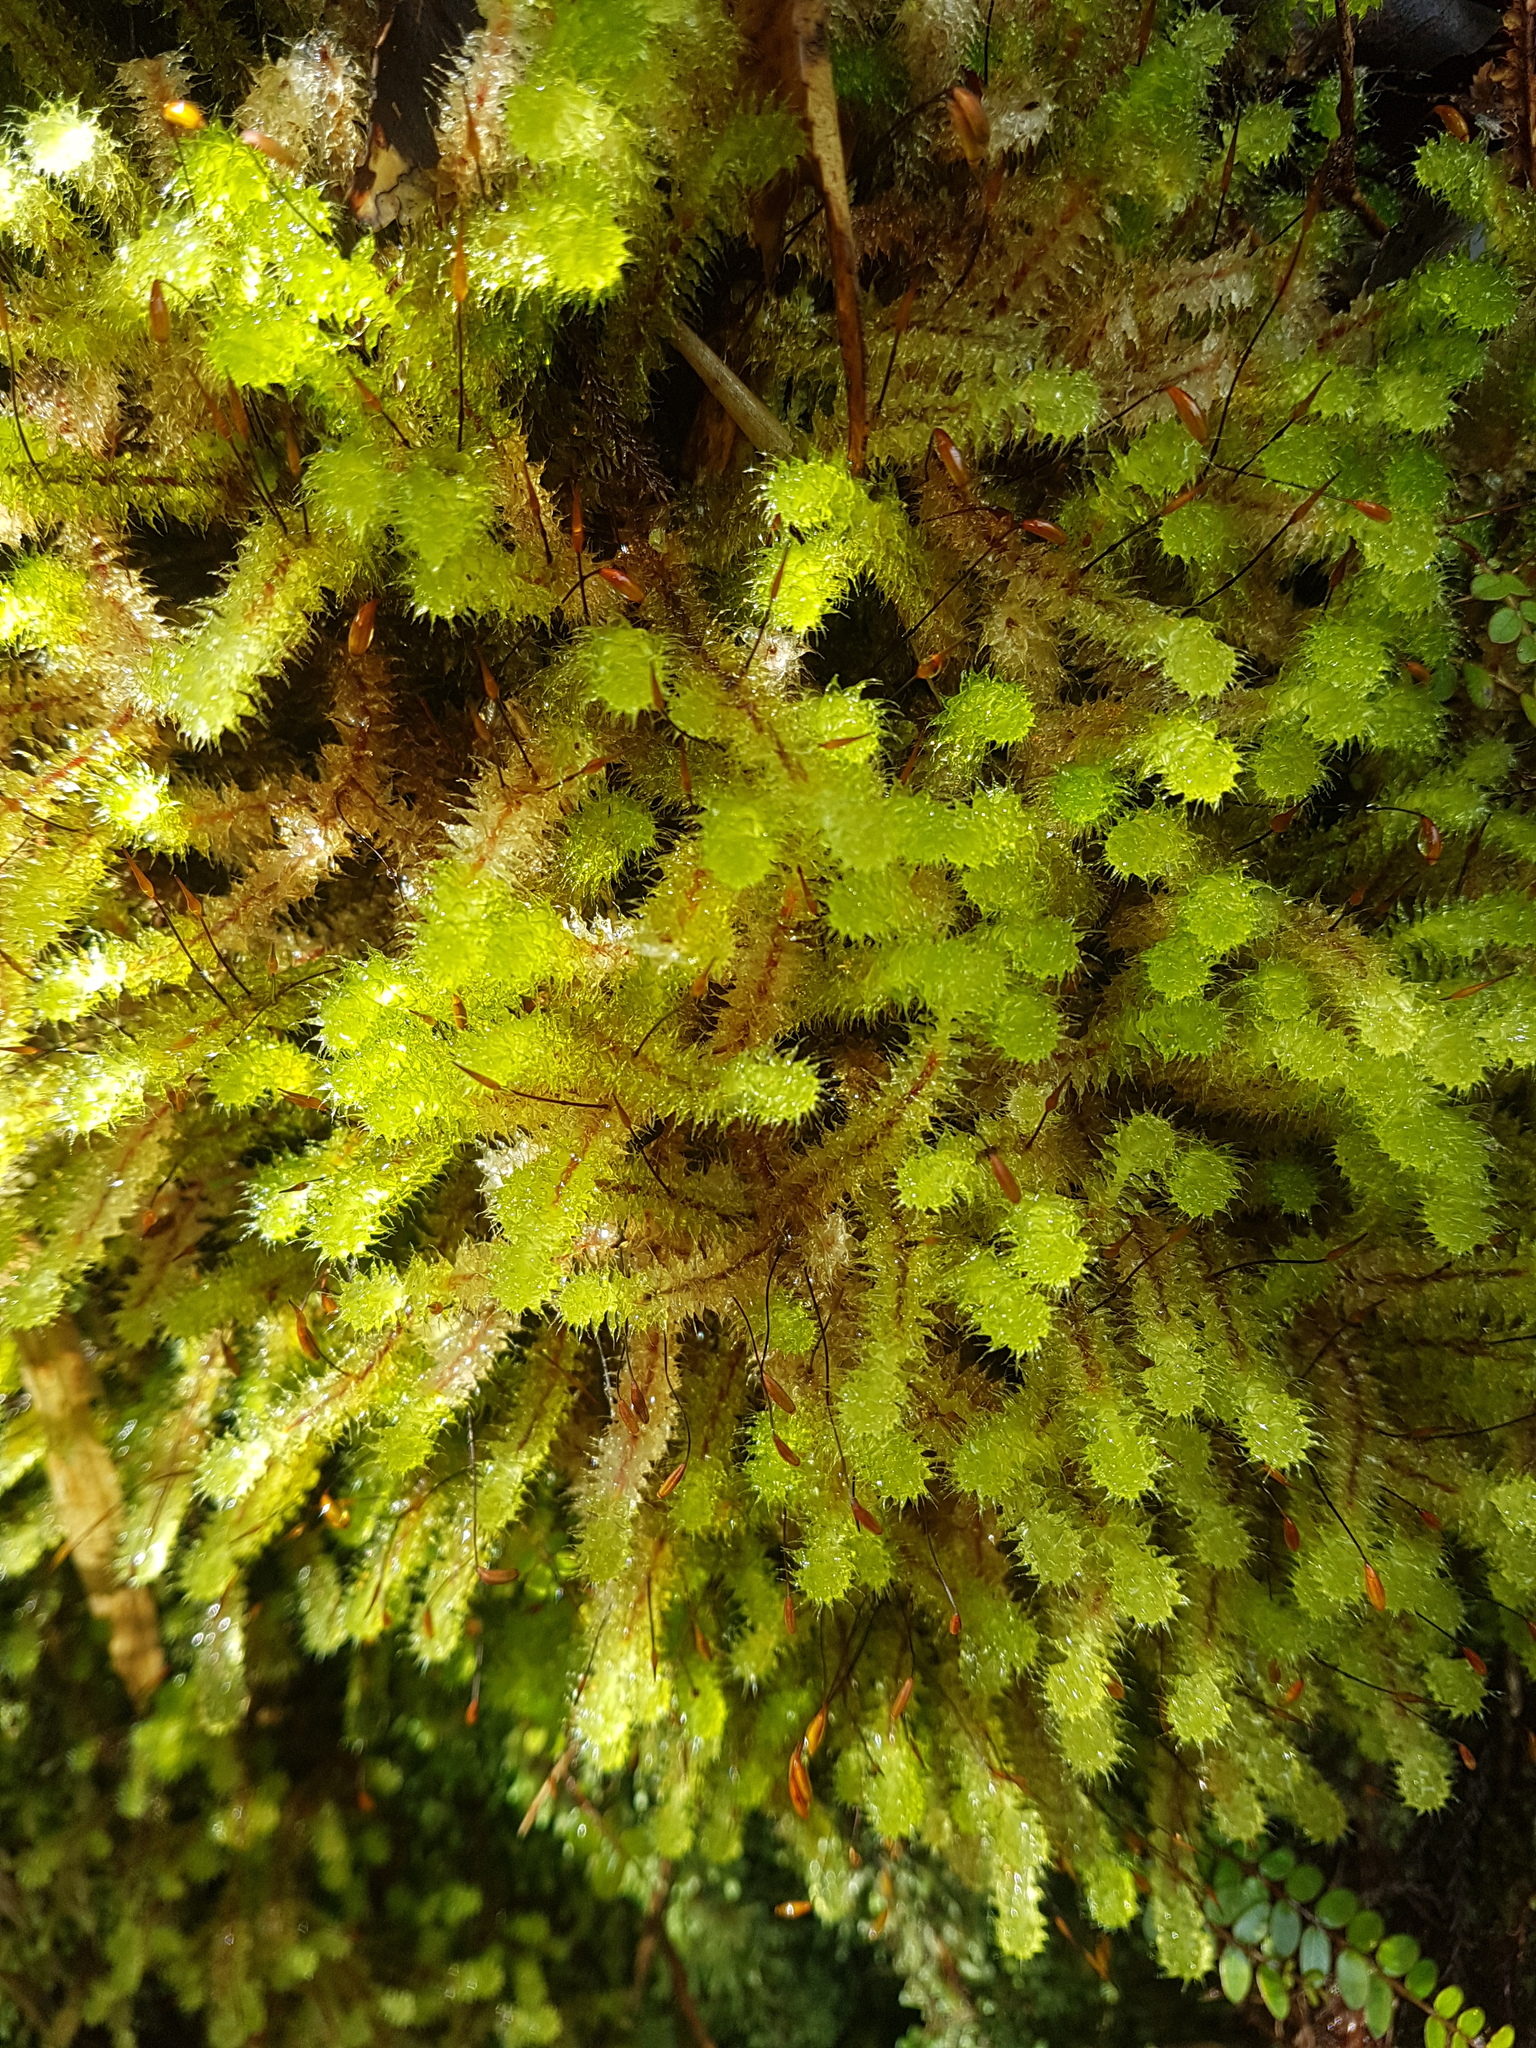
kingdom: Plantae
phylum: Bryophyta
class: Bryopsida
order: Ptychomniales
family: Ptychomniaceae
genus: Ptychomnion
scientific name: Ptychomnion aciculare
